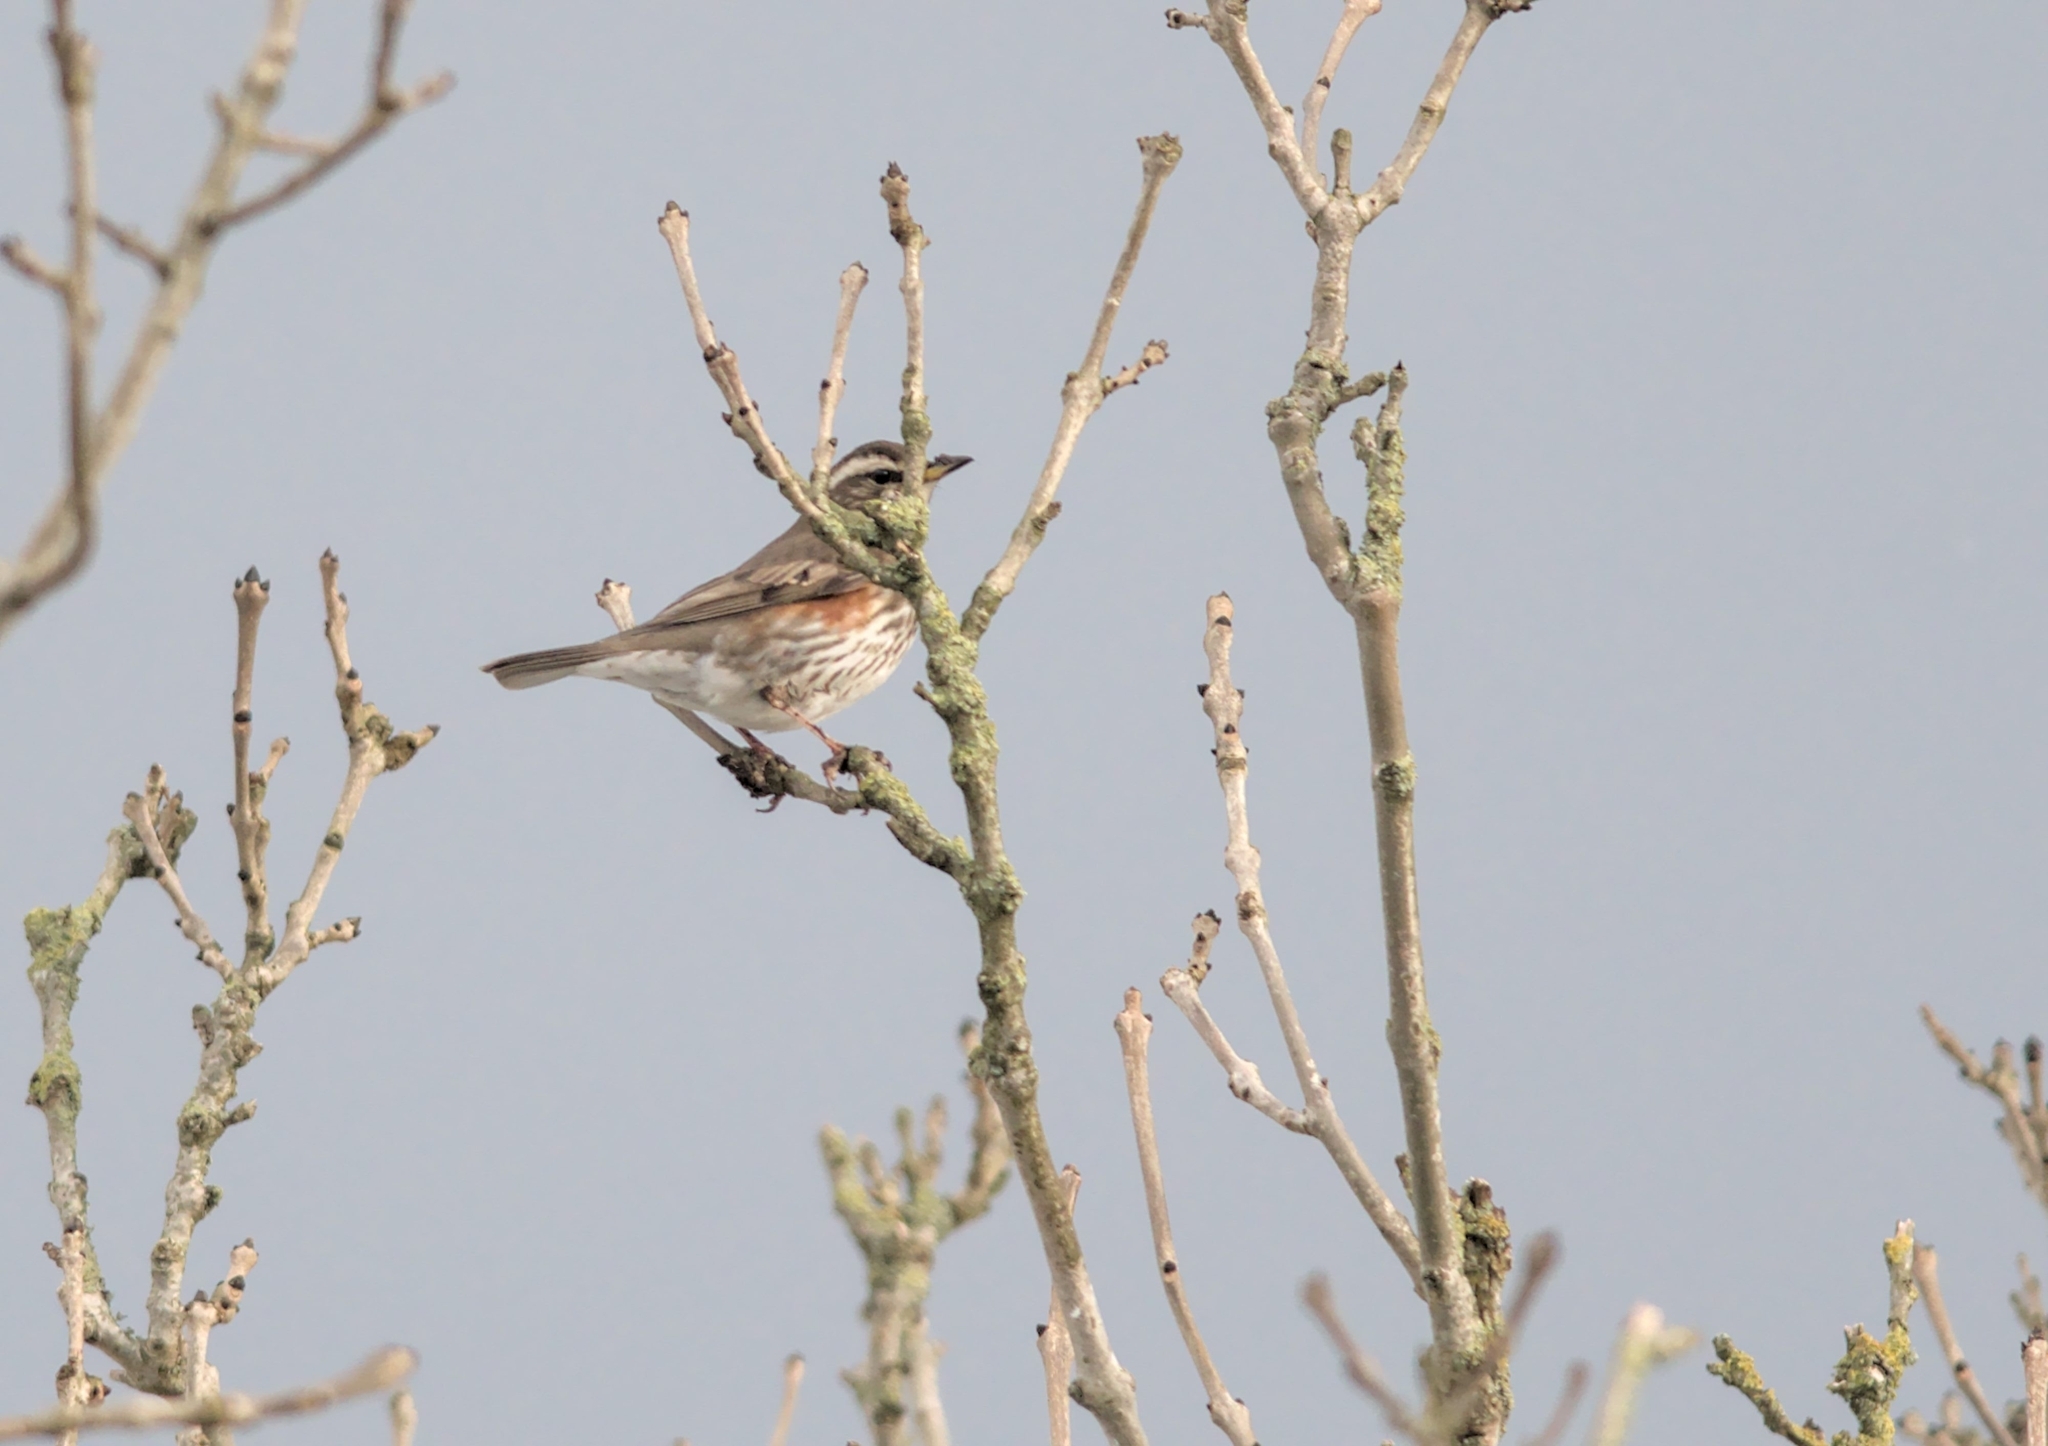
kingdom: Animalia
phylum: Chordata
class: Aves
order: Passeriformes
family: Turdidae
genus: Turdus
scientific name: Turdus iliacus
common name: Redwing
